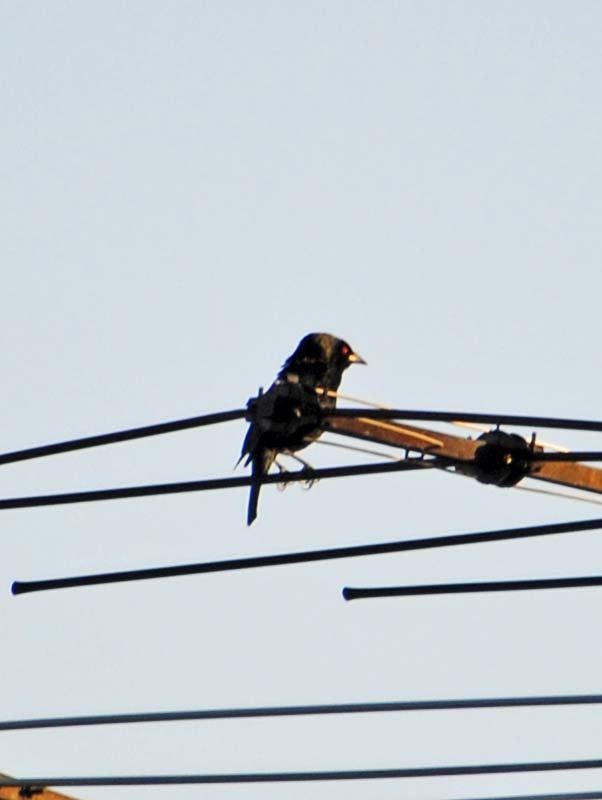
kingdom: Animalia
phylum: Chordata
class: Aves
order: Passeriformes
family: Icteridae
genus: Molothrus
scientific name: Molothrus aeneus
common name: Bronzed cowbird
